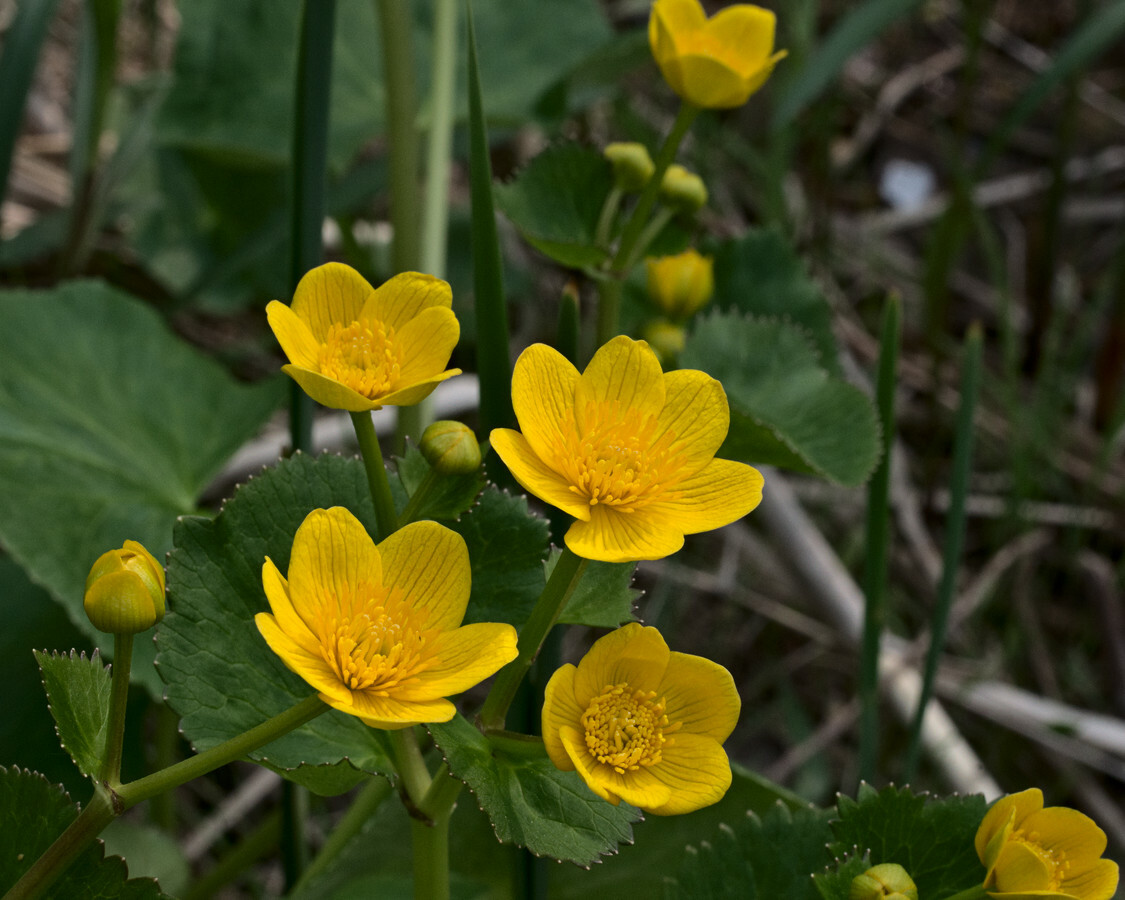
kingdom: Plantae
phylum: Tracheophyta
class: Magnoliopsida
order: Ranunculales
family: Ranunculaceae
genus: Caltha
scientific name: Caltha palustris
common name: Marsh marigold
